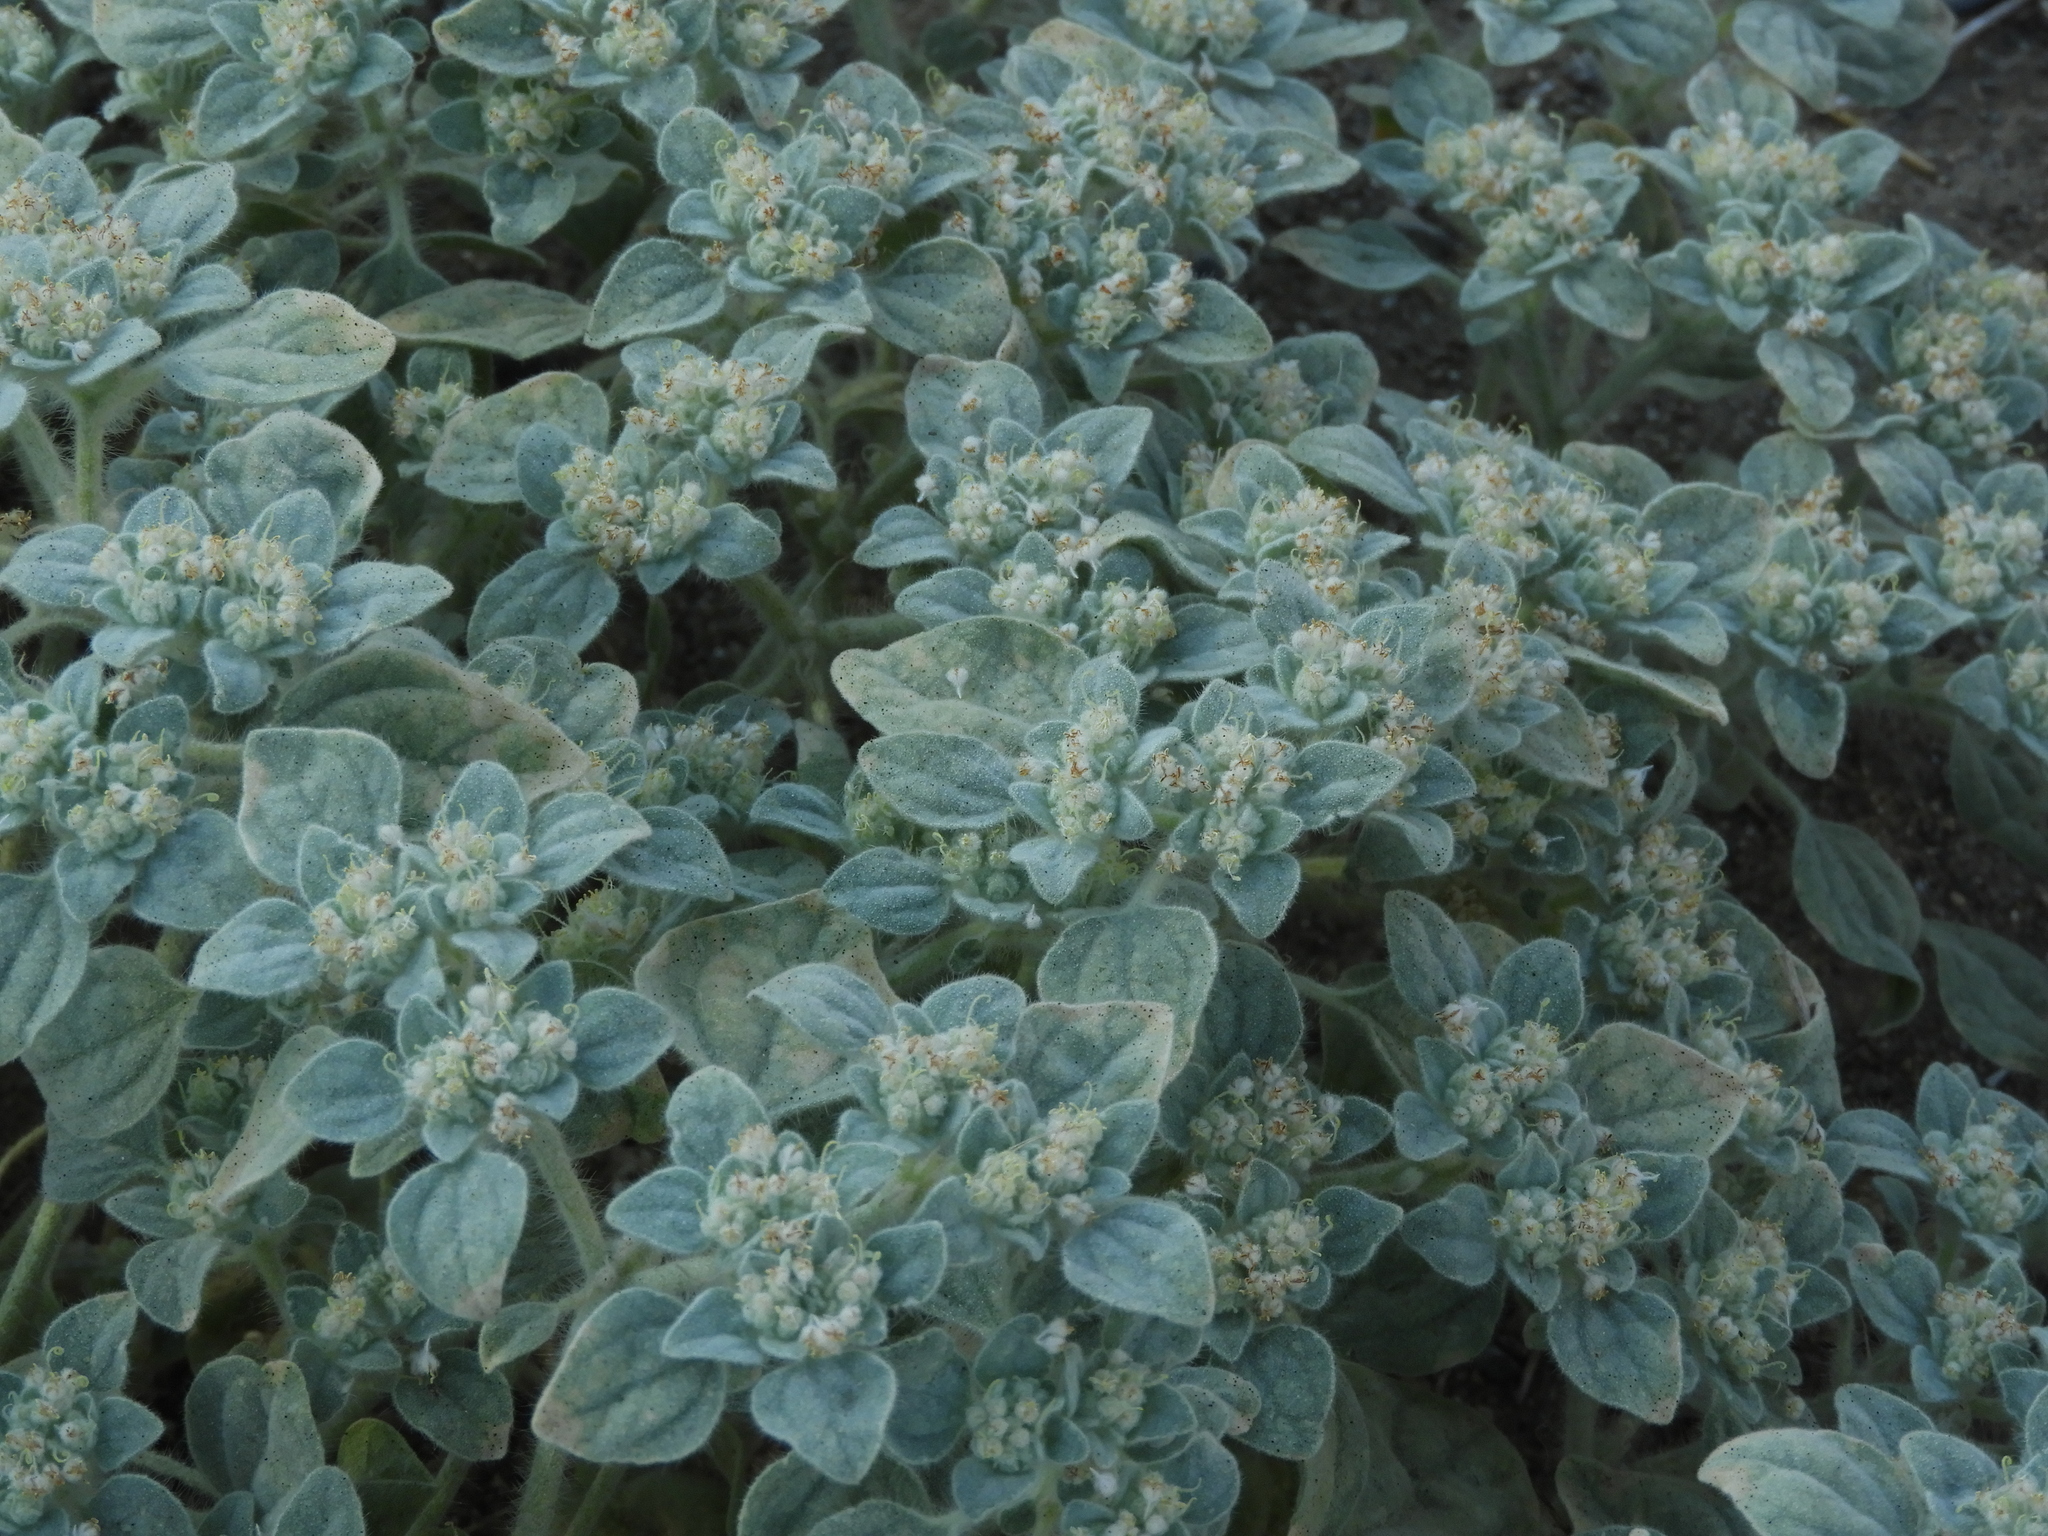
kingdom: Plantae
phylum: Tracheophyta
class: Magnoliopsida
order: Malpighiales
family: Euphorbiaceae
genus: Croton
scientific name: Croton setiger
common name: Dove weed
